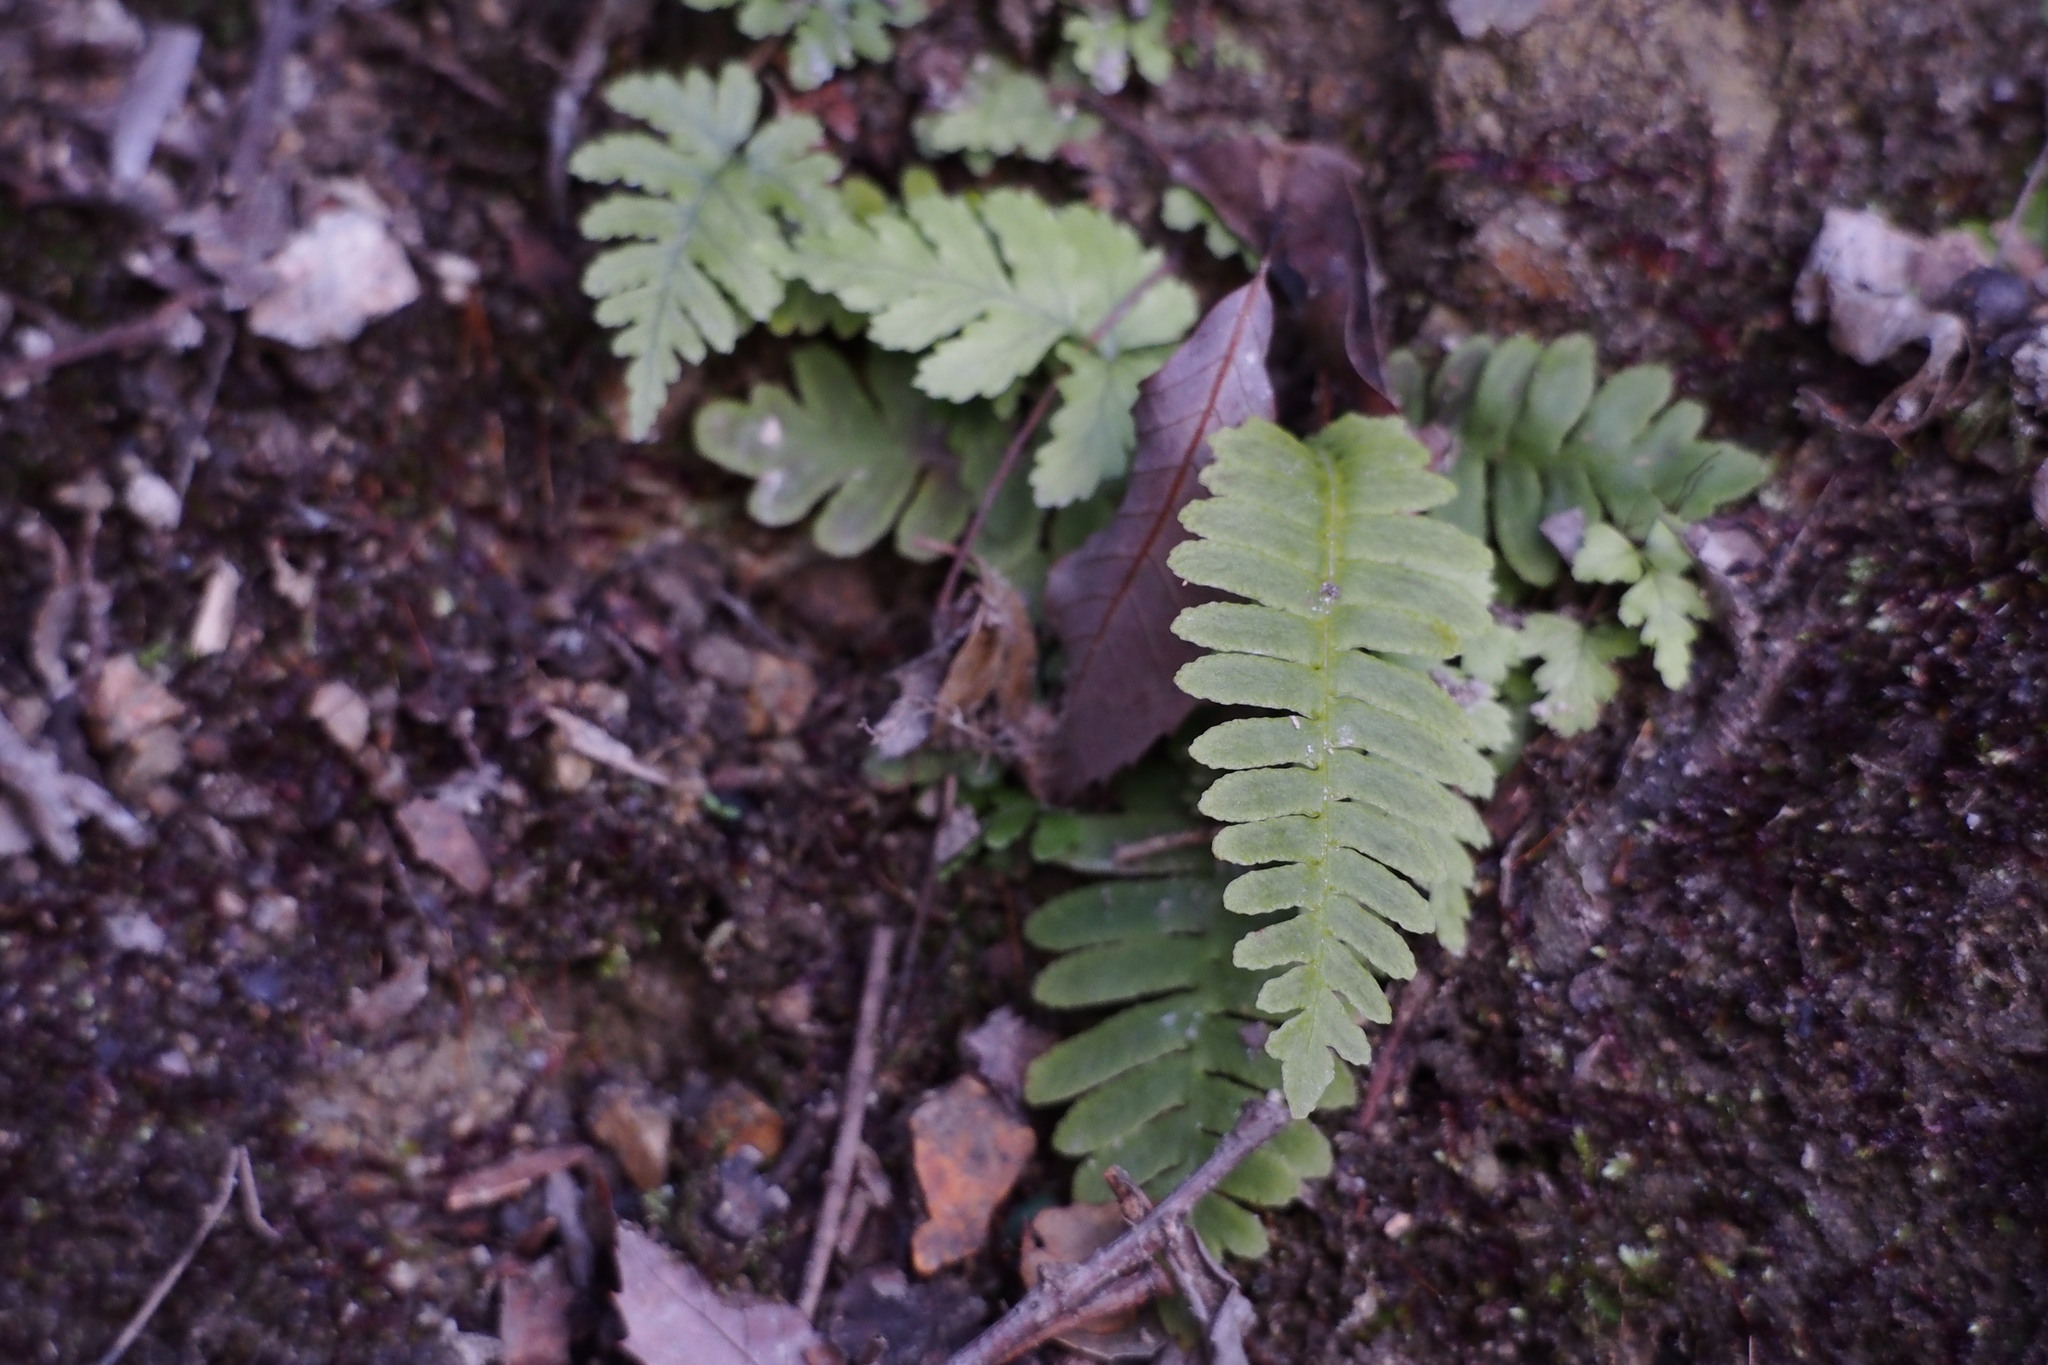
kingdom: Plantae
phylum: Tracheophyta
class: Polypodiopsida
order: Polypodiales
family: Blechnaceae
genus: Spicantopsis
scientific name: Spicantopsis niponica
